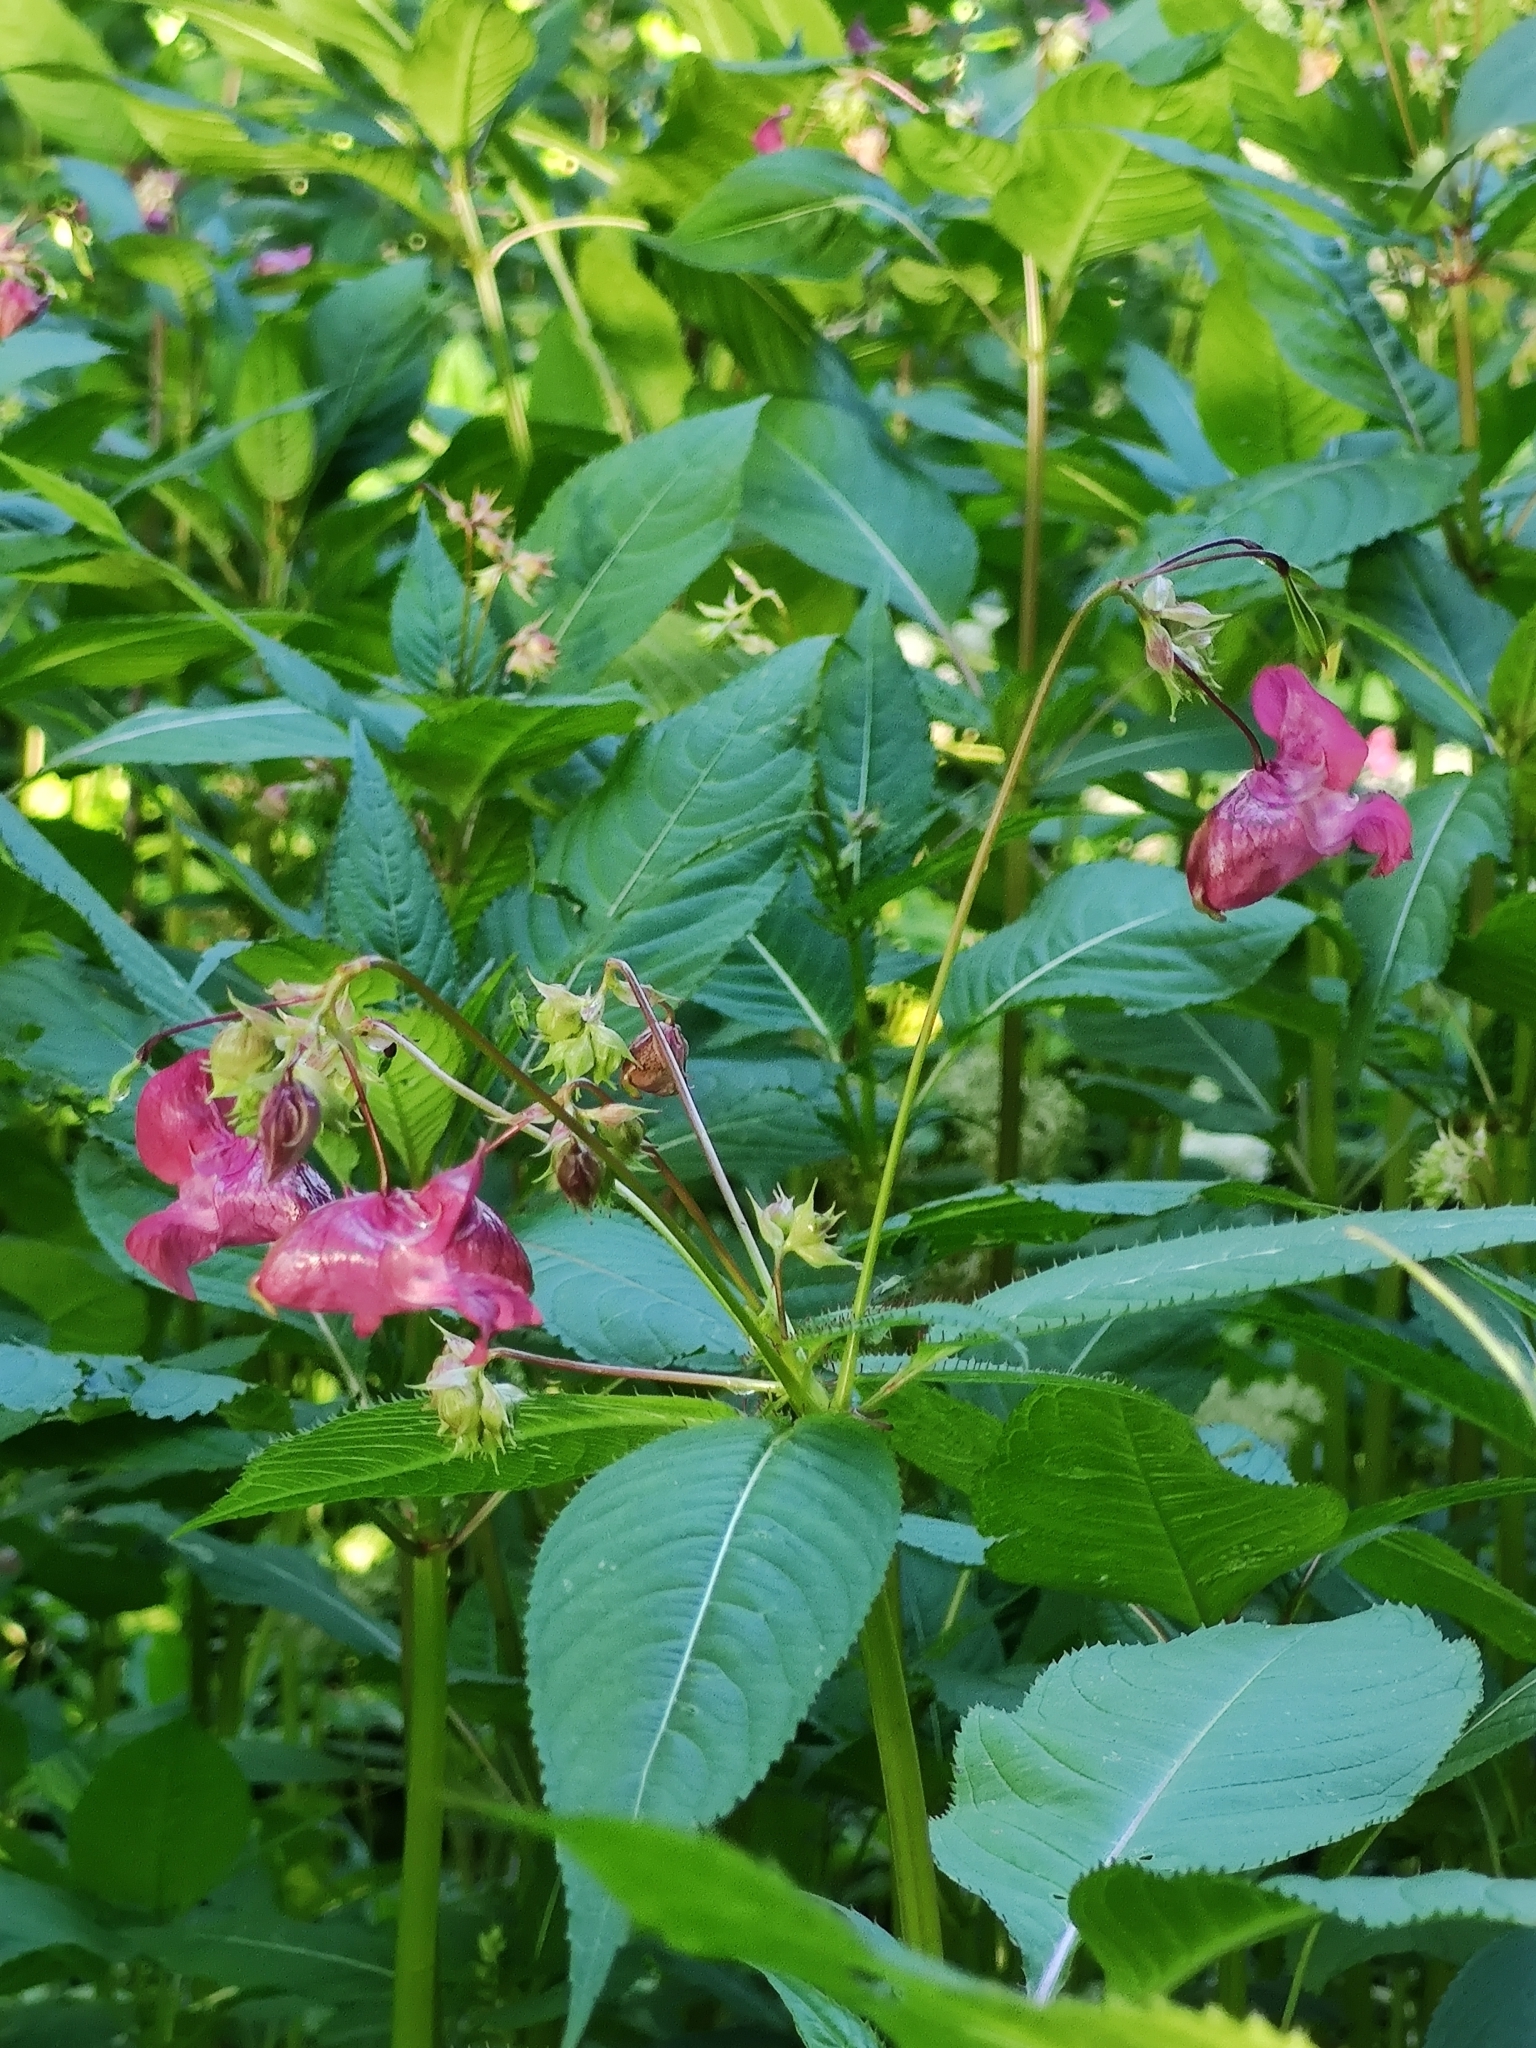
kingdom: Plantae
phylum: Tracheophyta
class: Magnoliopsida
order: Ericales
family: Balsaminaceae
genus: Impatiens
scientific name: Impatiens glandulifera
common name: Himalayan balsam
